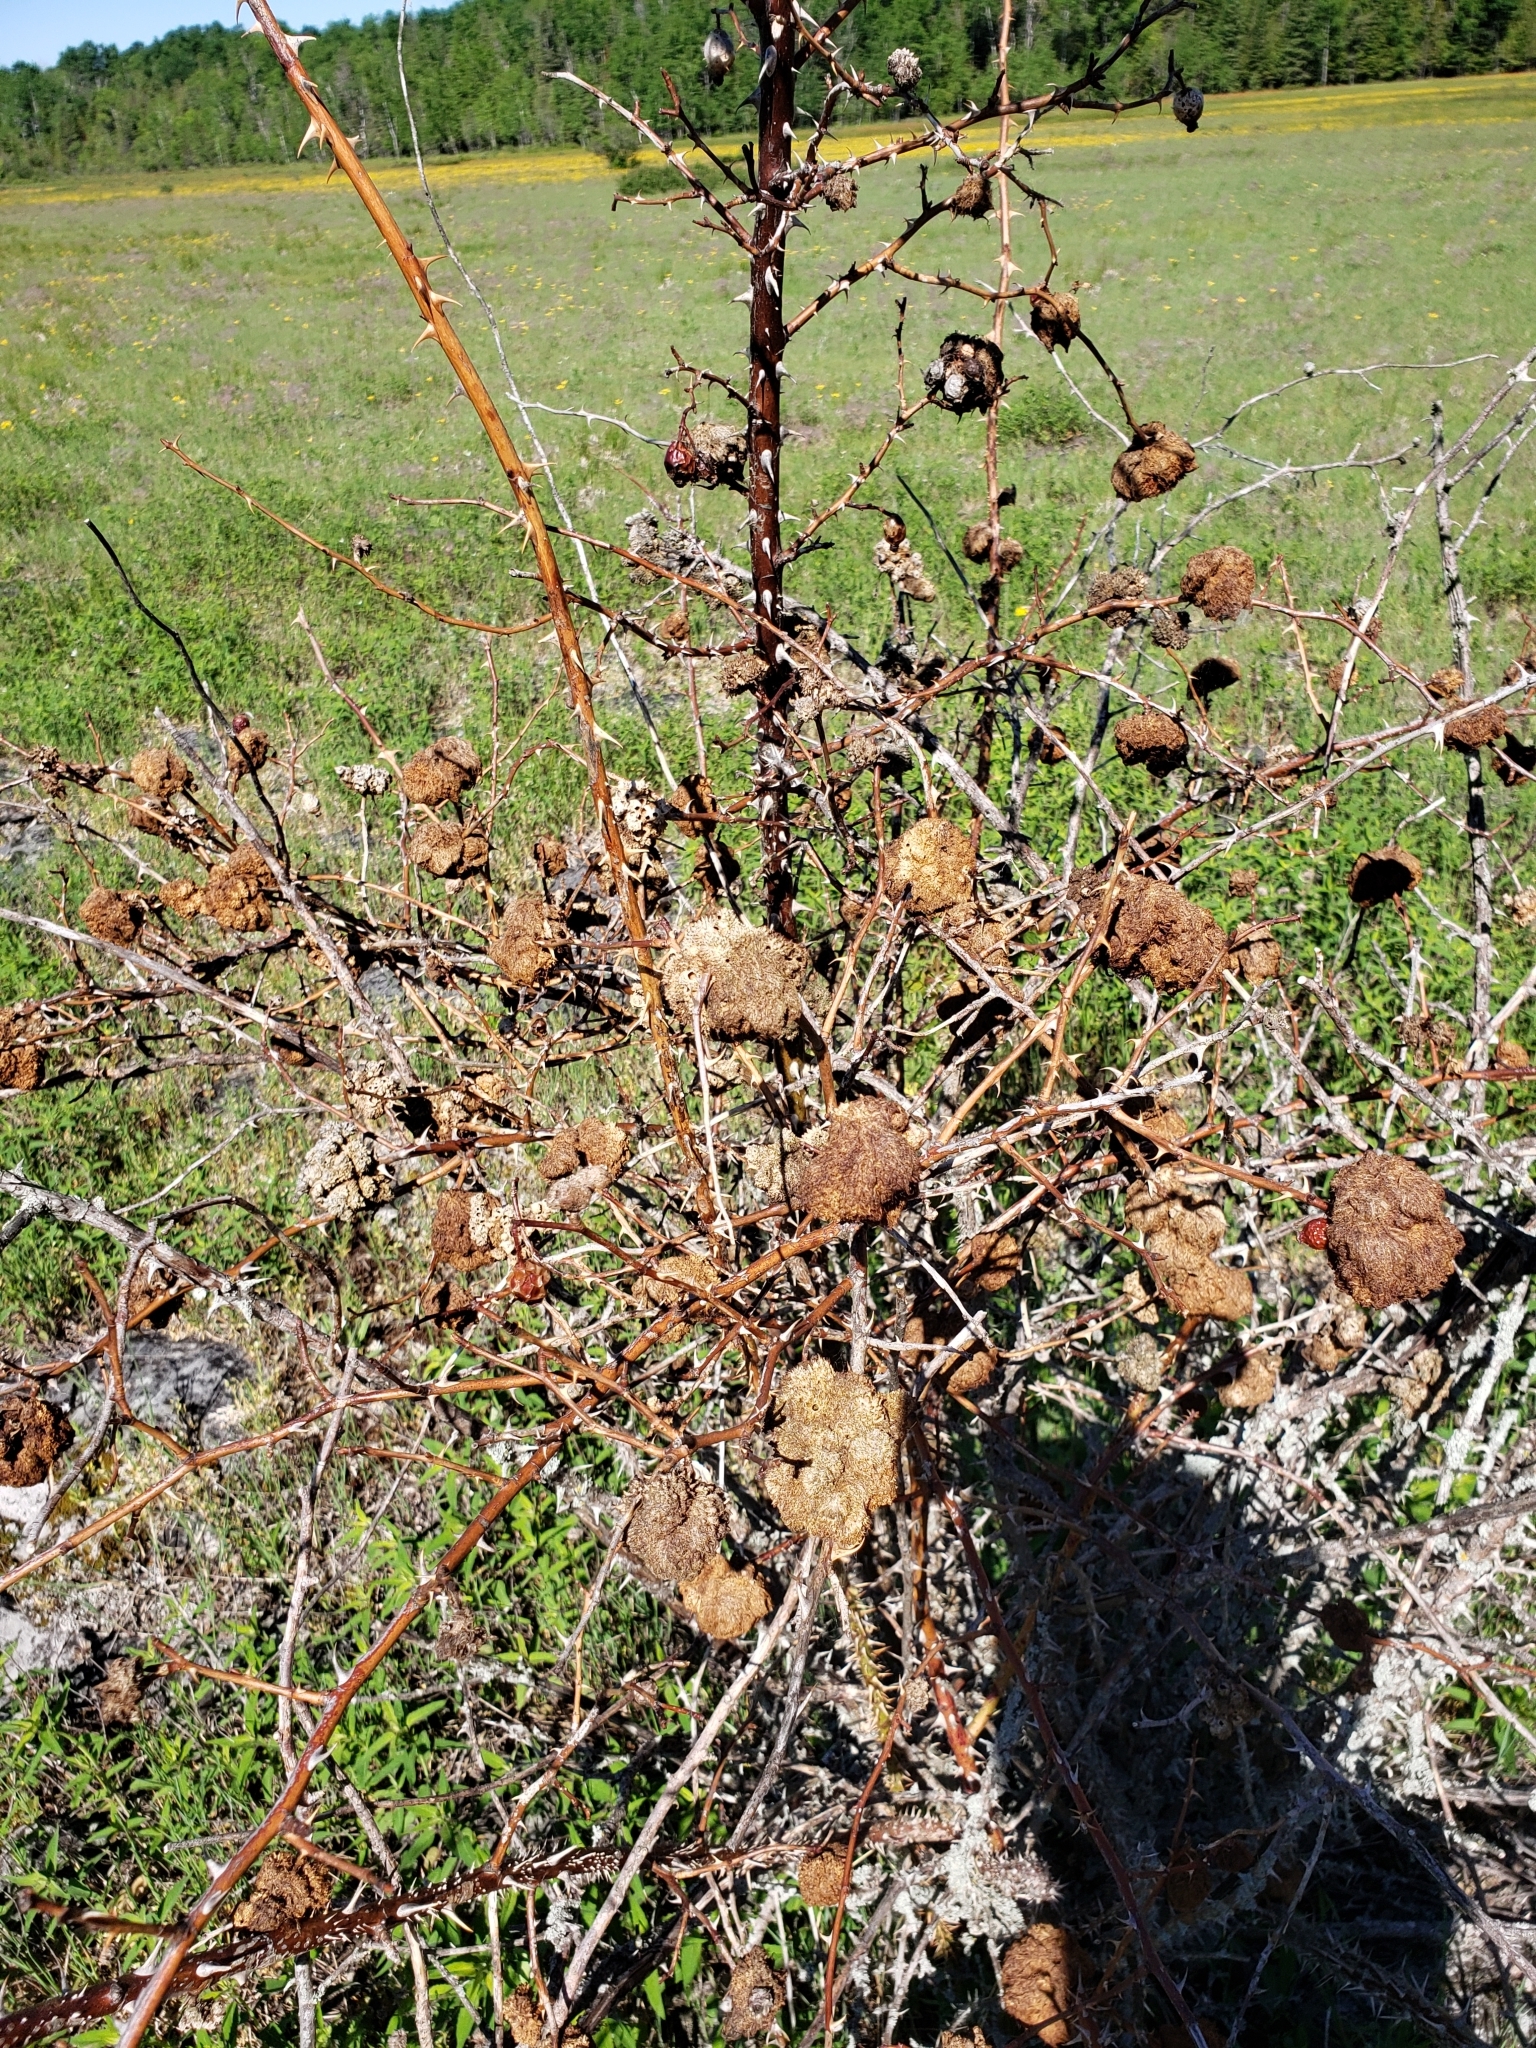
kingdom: Animalia
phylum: Arthropoda
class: Insecta
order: Hymenoptera
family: Cynipidae
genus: Diplolepis
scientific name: Diplolepis rosae
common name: Bedeguar gall
